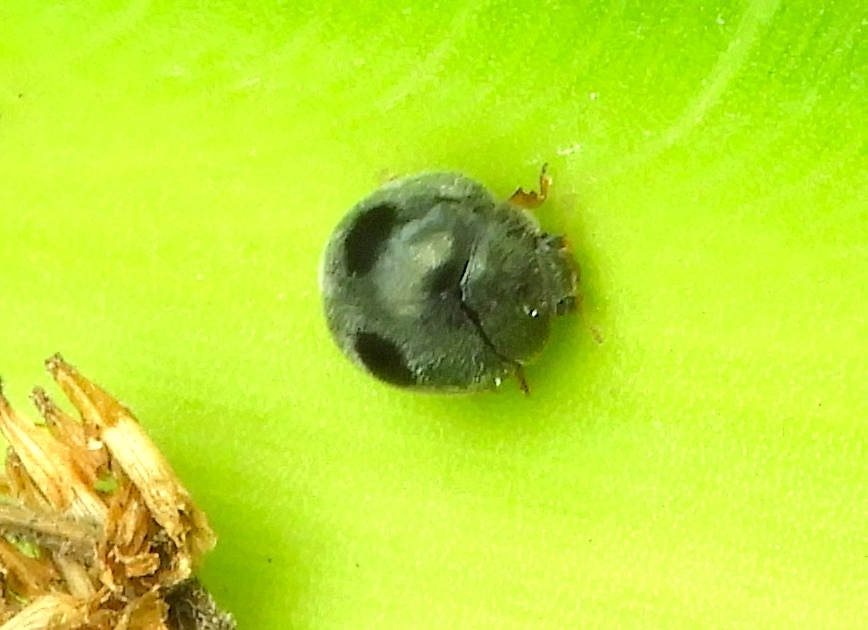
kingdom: Animalia
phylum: Arthropoda
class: Insecta
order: Coleoptera
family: Coccinellidae
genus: Azya
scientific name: Azya
